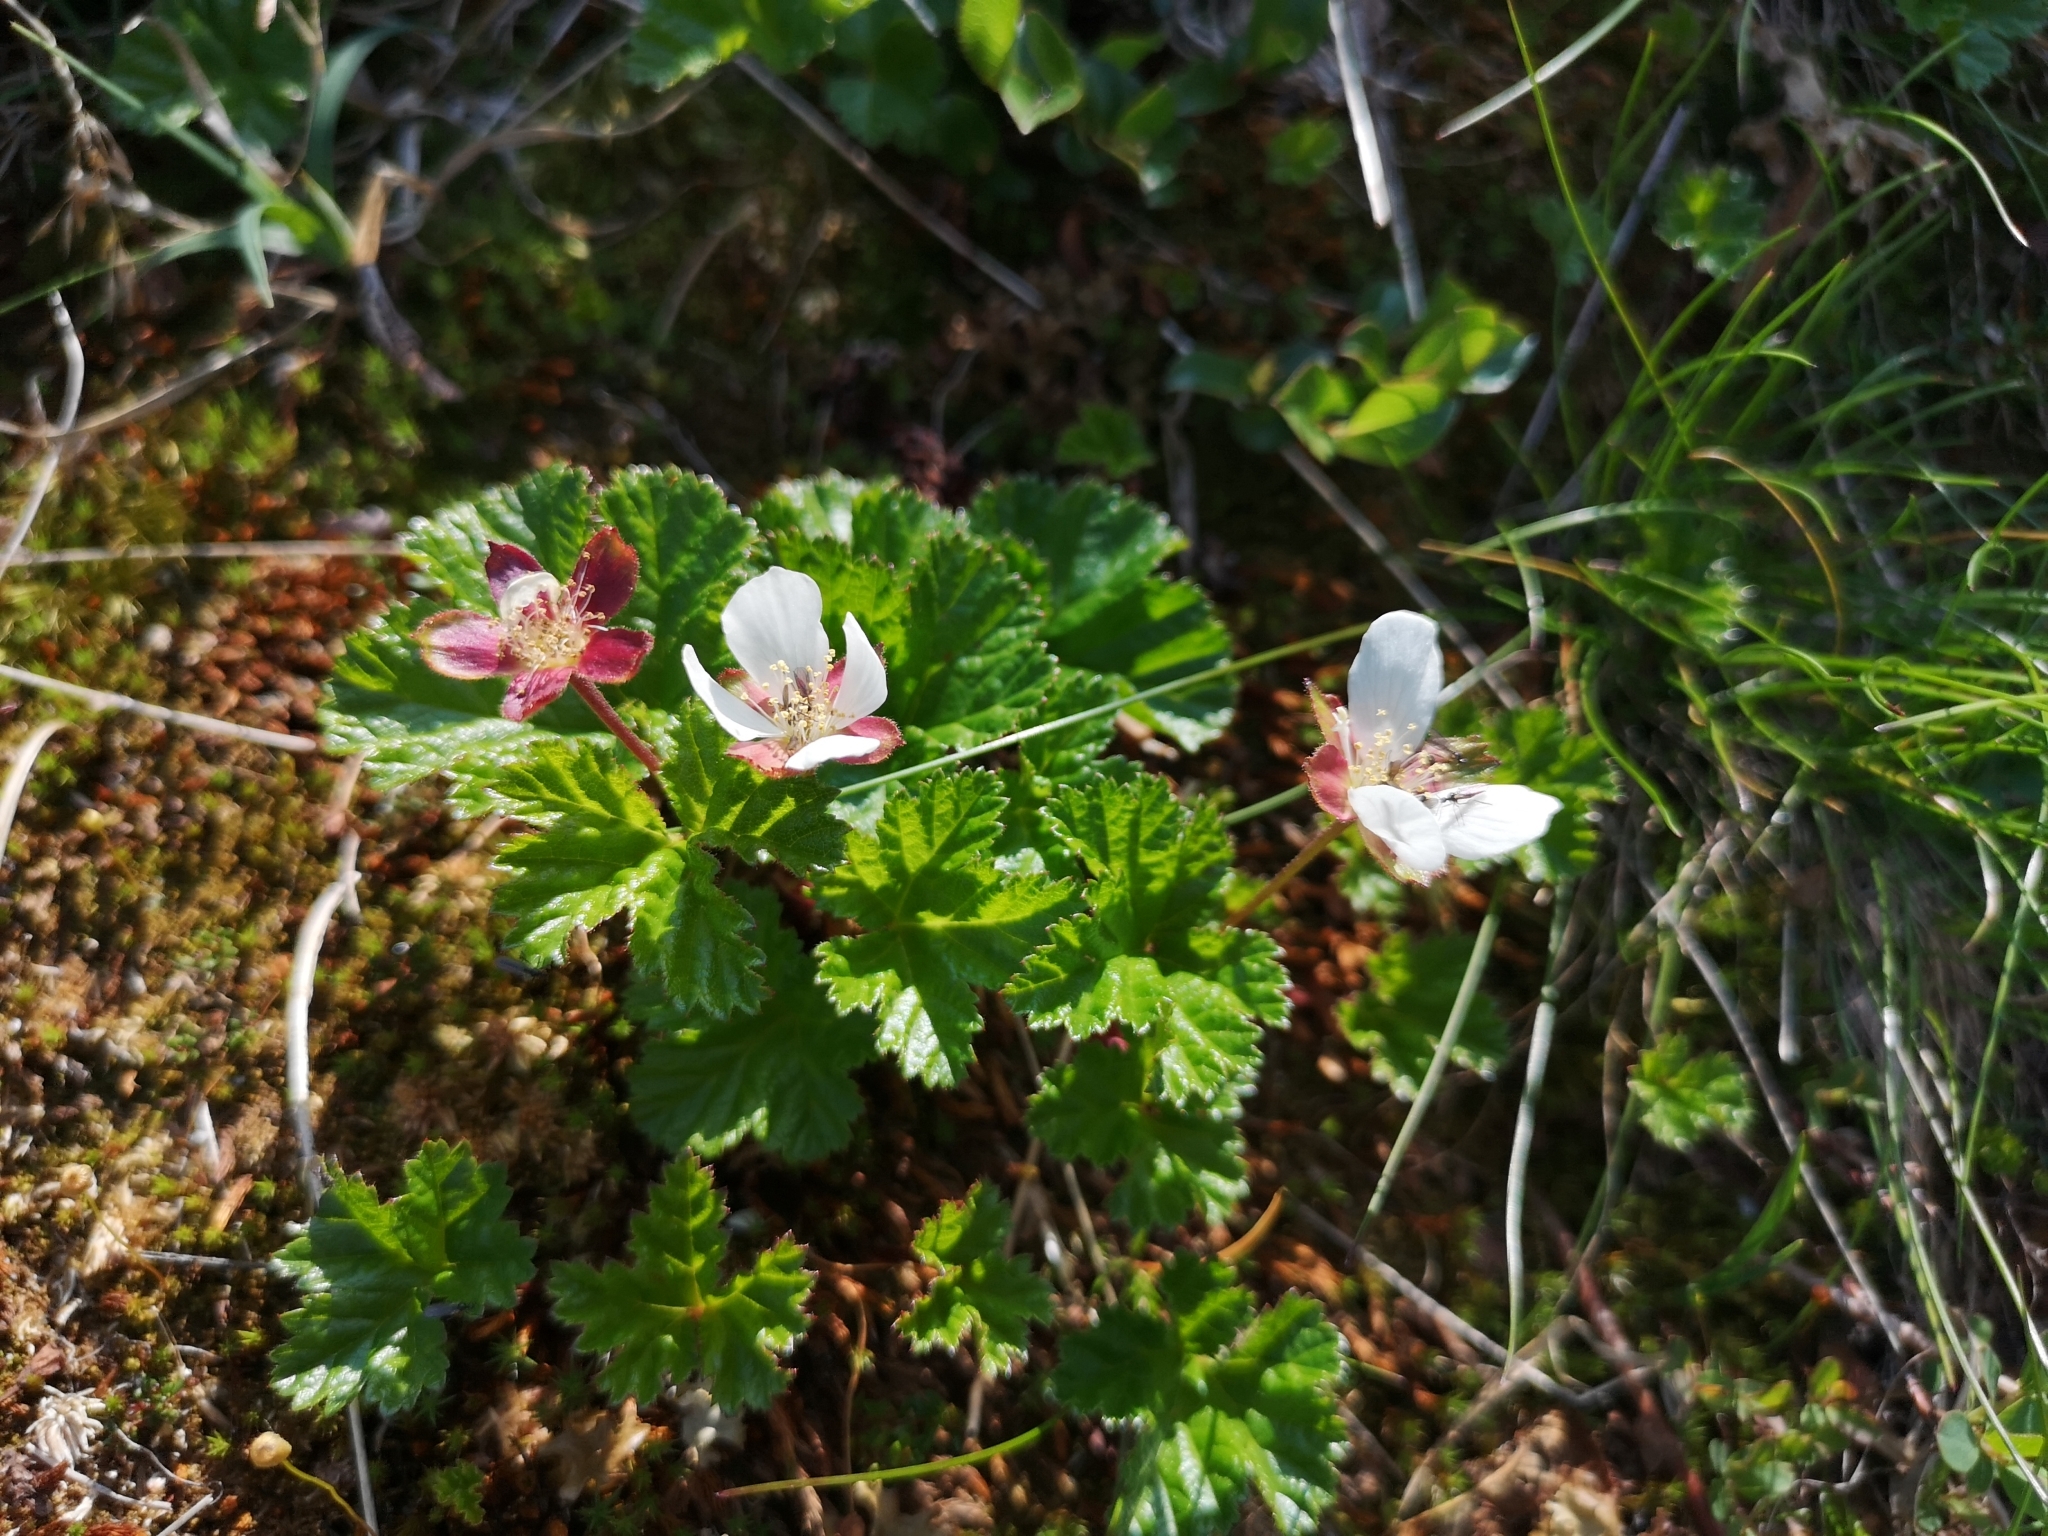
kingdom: Plantae
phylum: Tracheophyta
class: Magnoliopsida
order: Rosales
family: Rosaceae
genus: Rubus
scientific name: Rubus chamaemorus
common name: Cloudberry
